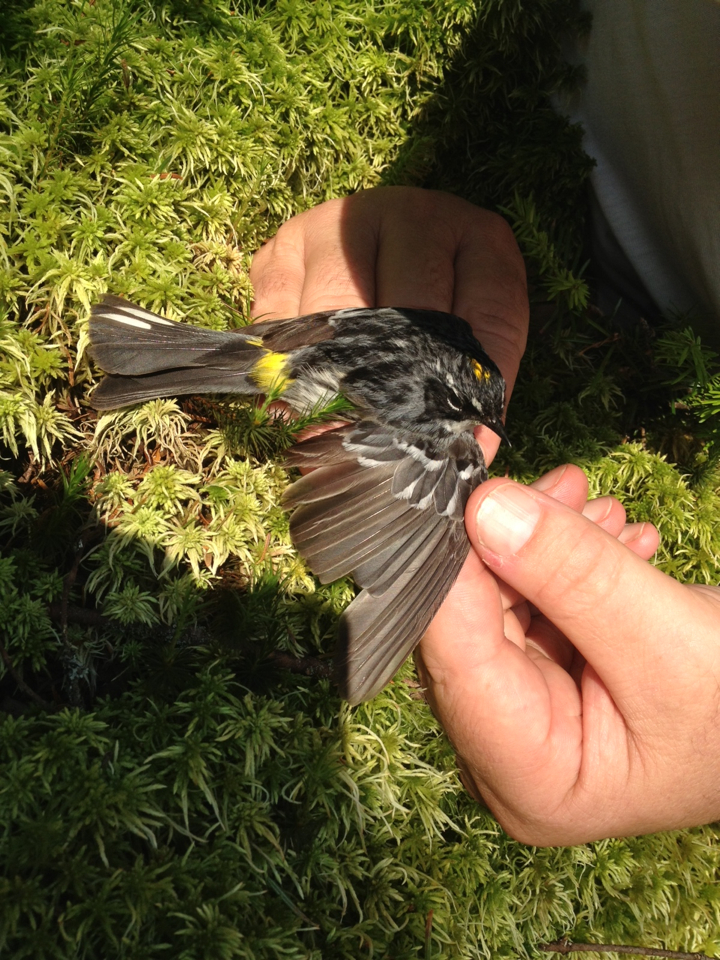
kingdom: Animalia
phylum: Chordata
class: Aves
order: Passeriformes
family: Parulidae
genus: Setophaga
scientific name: Setophaga coronata
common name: Myrtle warbler
